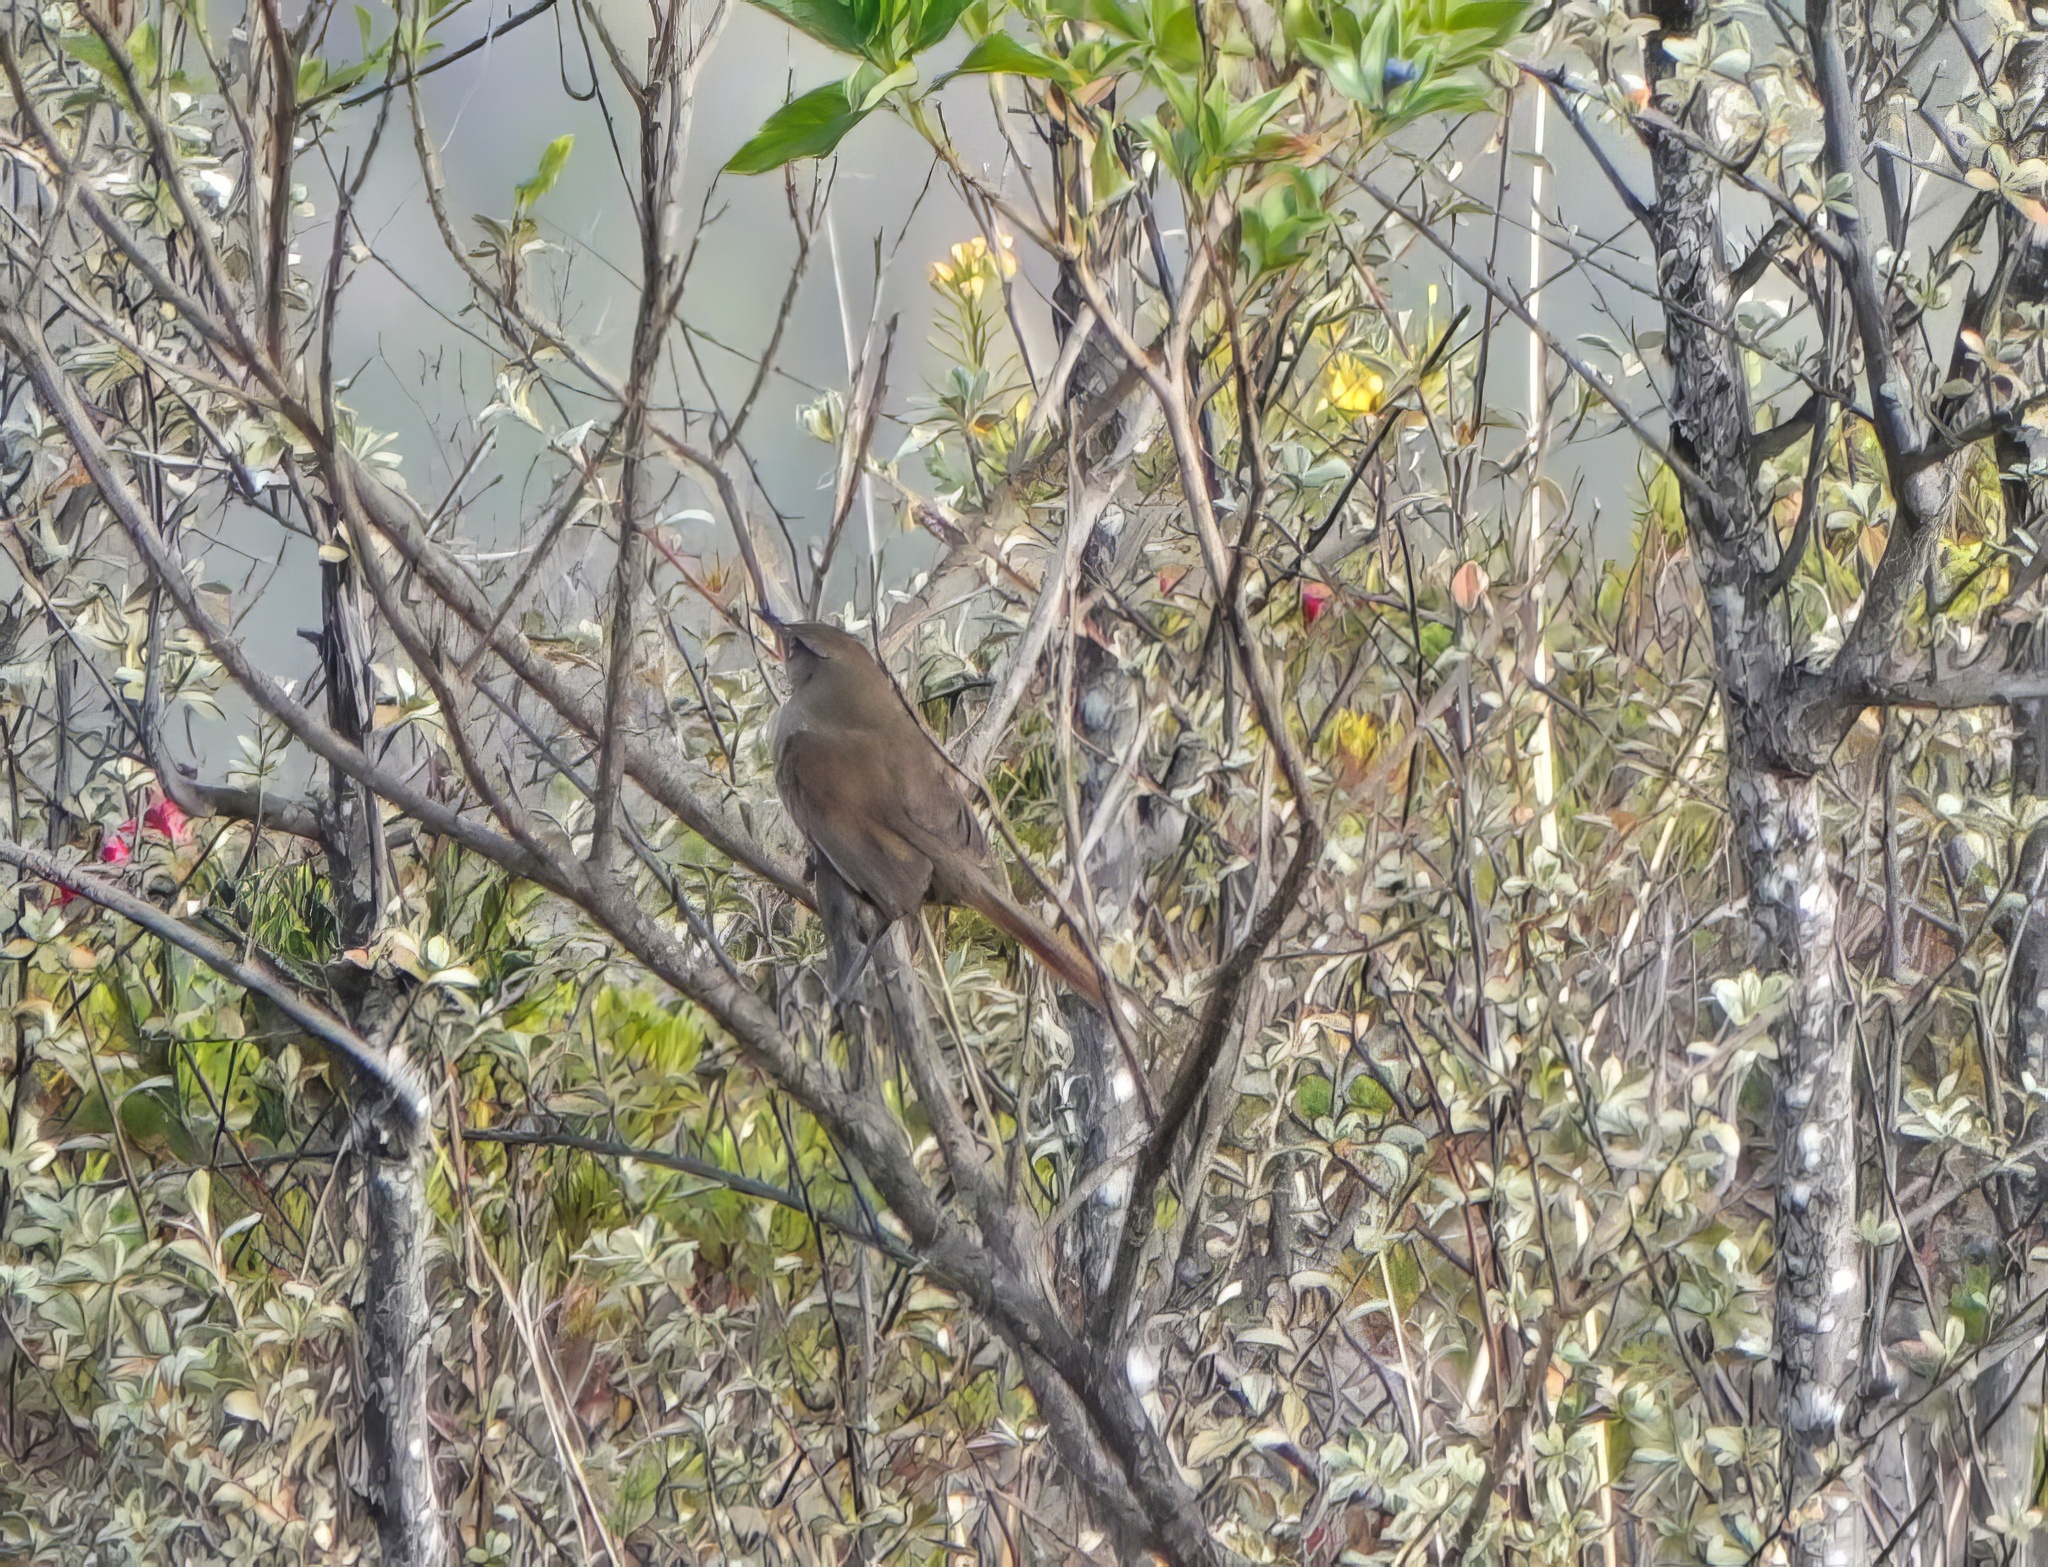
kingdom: Animalia
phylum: Chordata
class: Aves
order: Passeriformes
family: Furnariidae
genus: Asthenes
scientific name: Asthenes perijana
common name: Perija thistletail
